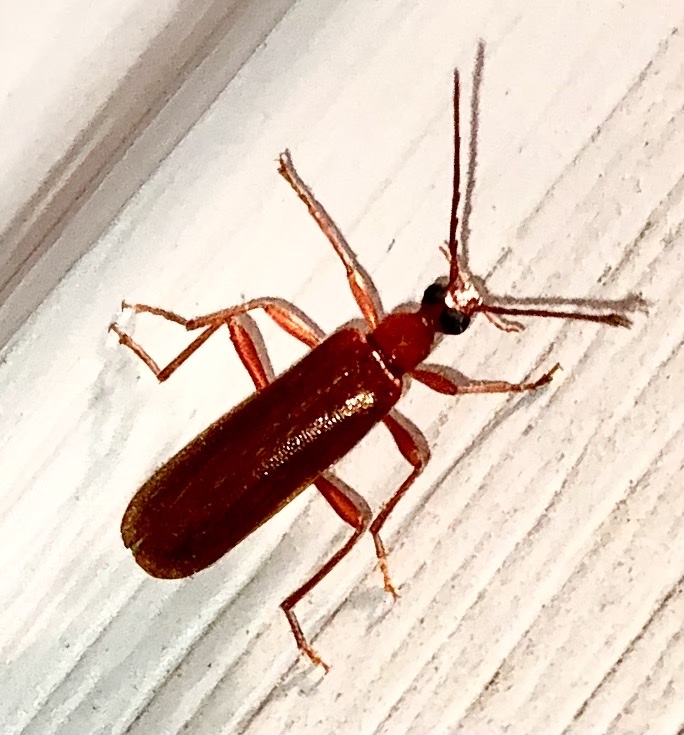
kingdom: Animalia
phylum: Arthropoda
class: Insecta
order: Coleoptera
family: Pyrochroidae
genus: Dendroides
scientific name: Dendroides concolor
